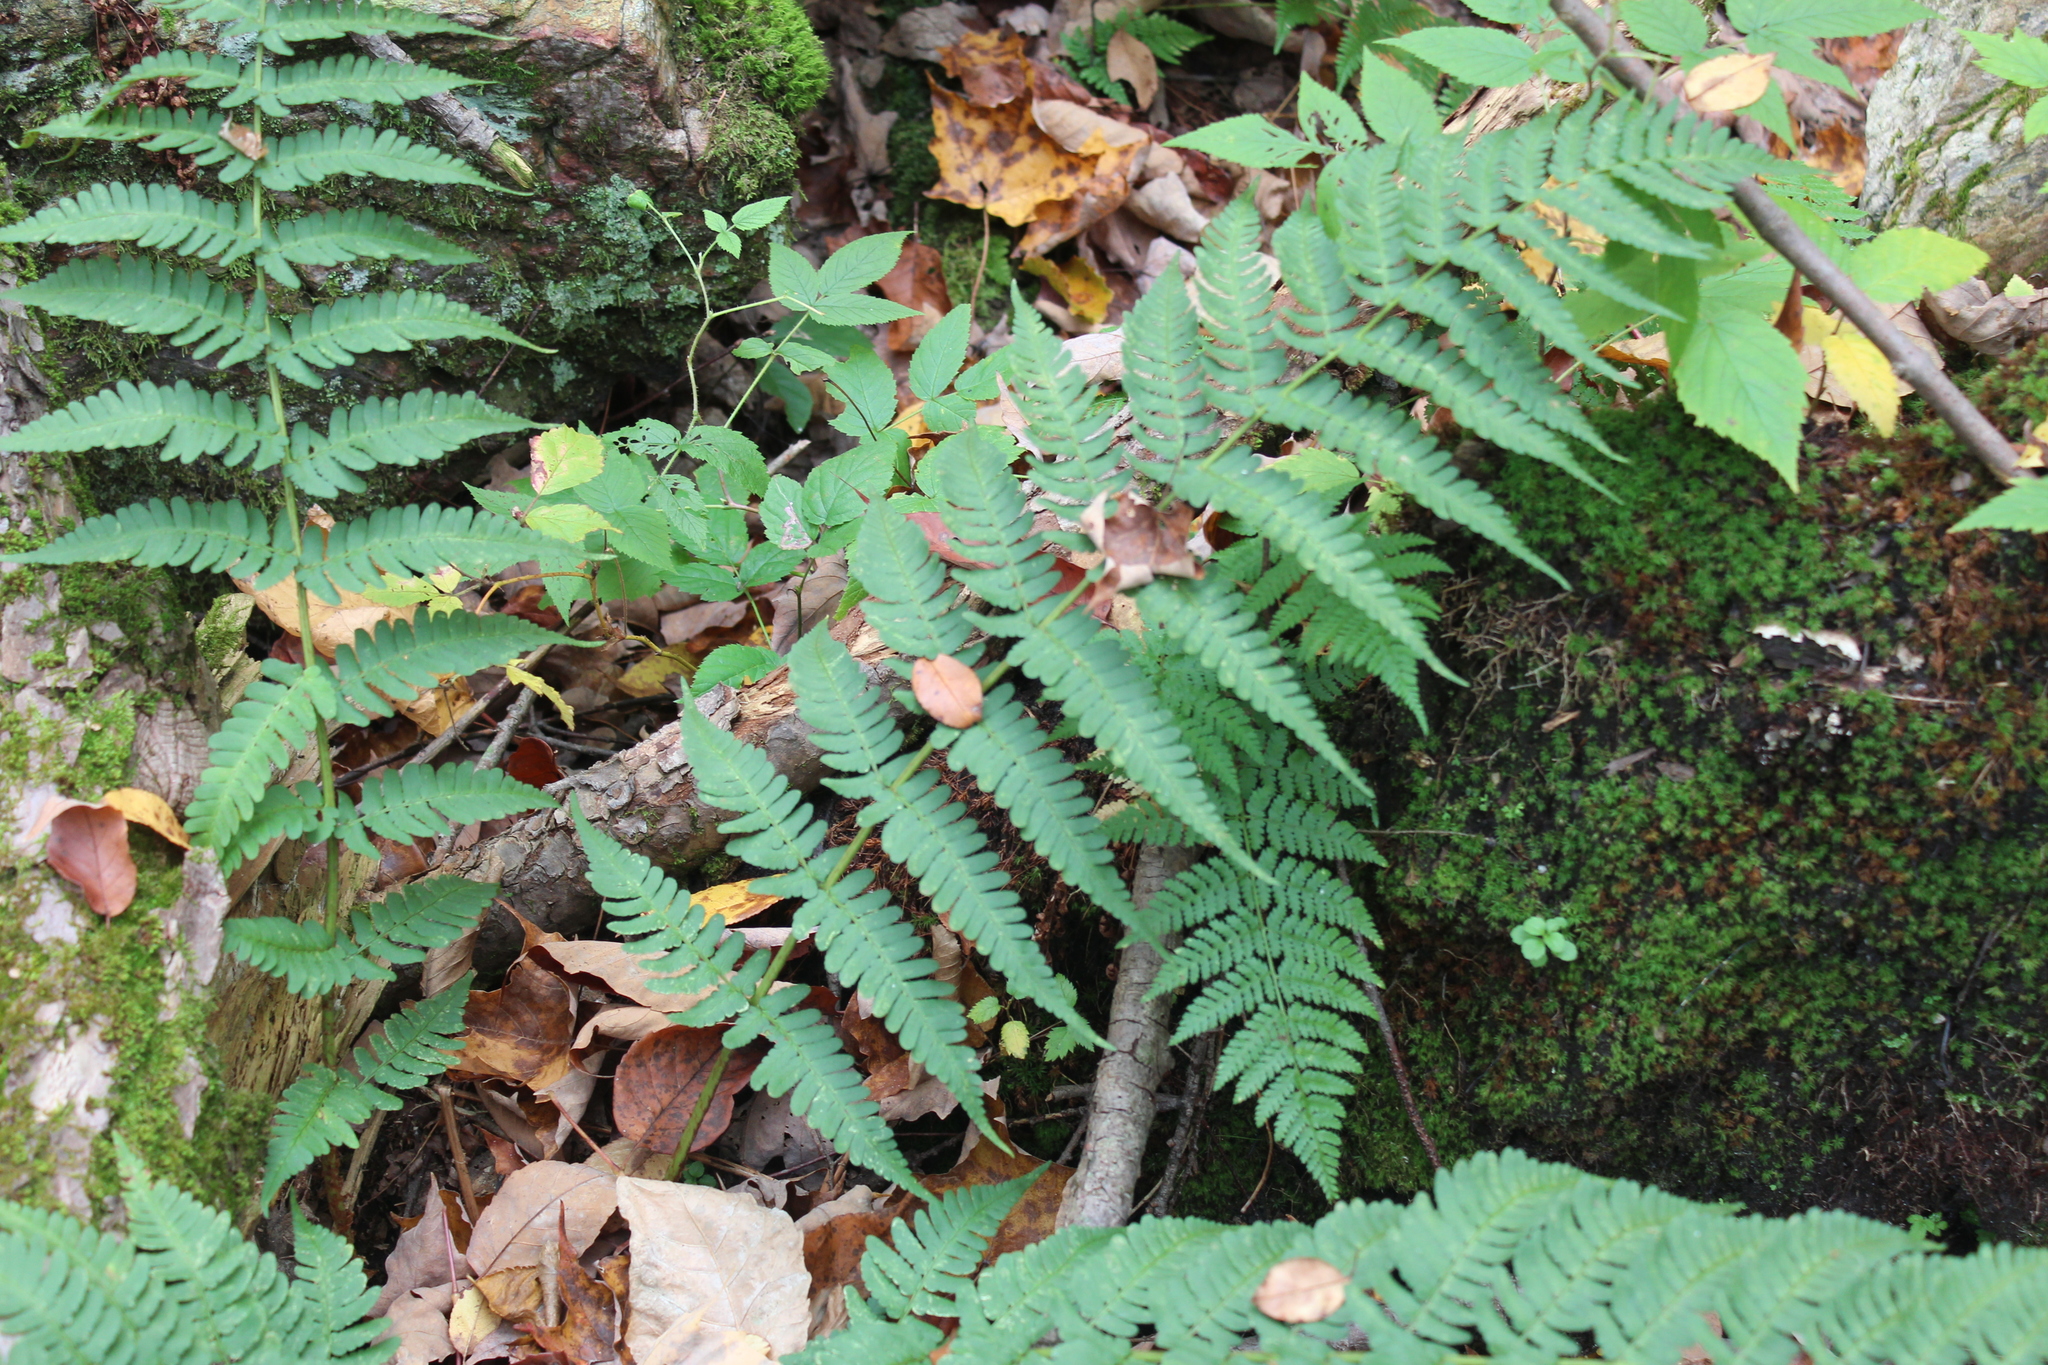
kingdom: Plantae
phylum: Tracheophyta
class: Polypodiopsida
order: Polypodiales
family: Dryopteridaceae
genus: Dryopteris
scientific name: Dryopteris marginalis
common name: Marginal wood fern
